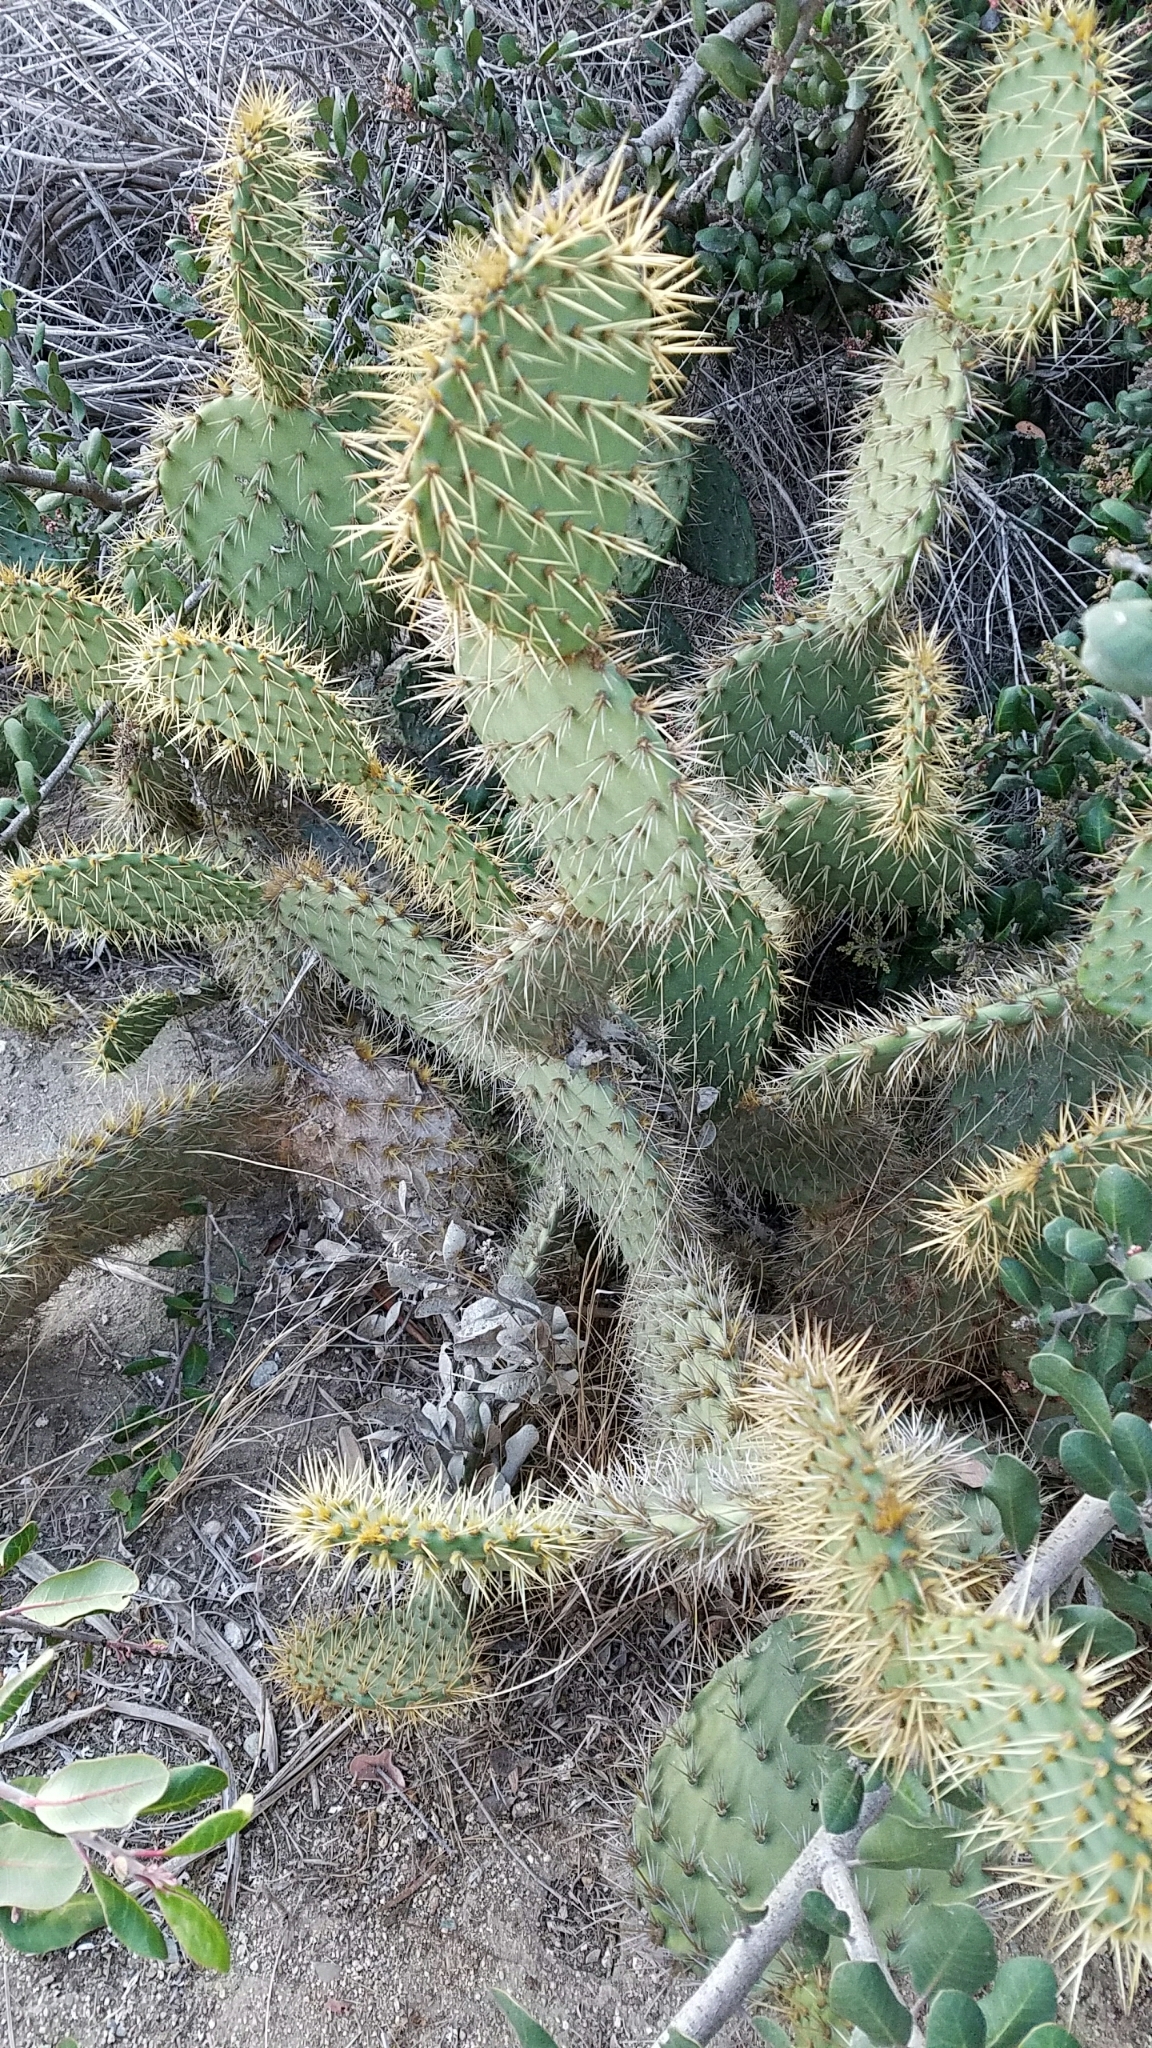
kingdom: Plantae
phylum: Tracheophyta
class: Magnoliopsida
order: Caryophyllales
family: Cactaceae
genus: Opuntia
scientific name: Opuntia littoralis
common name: Coastal prickly-pear
